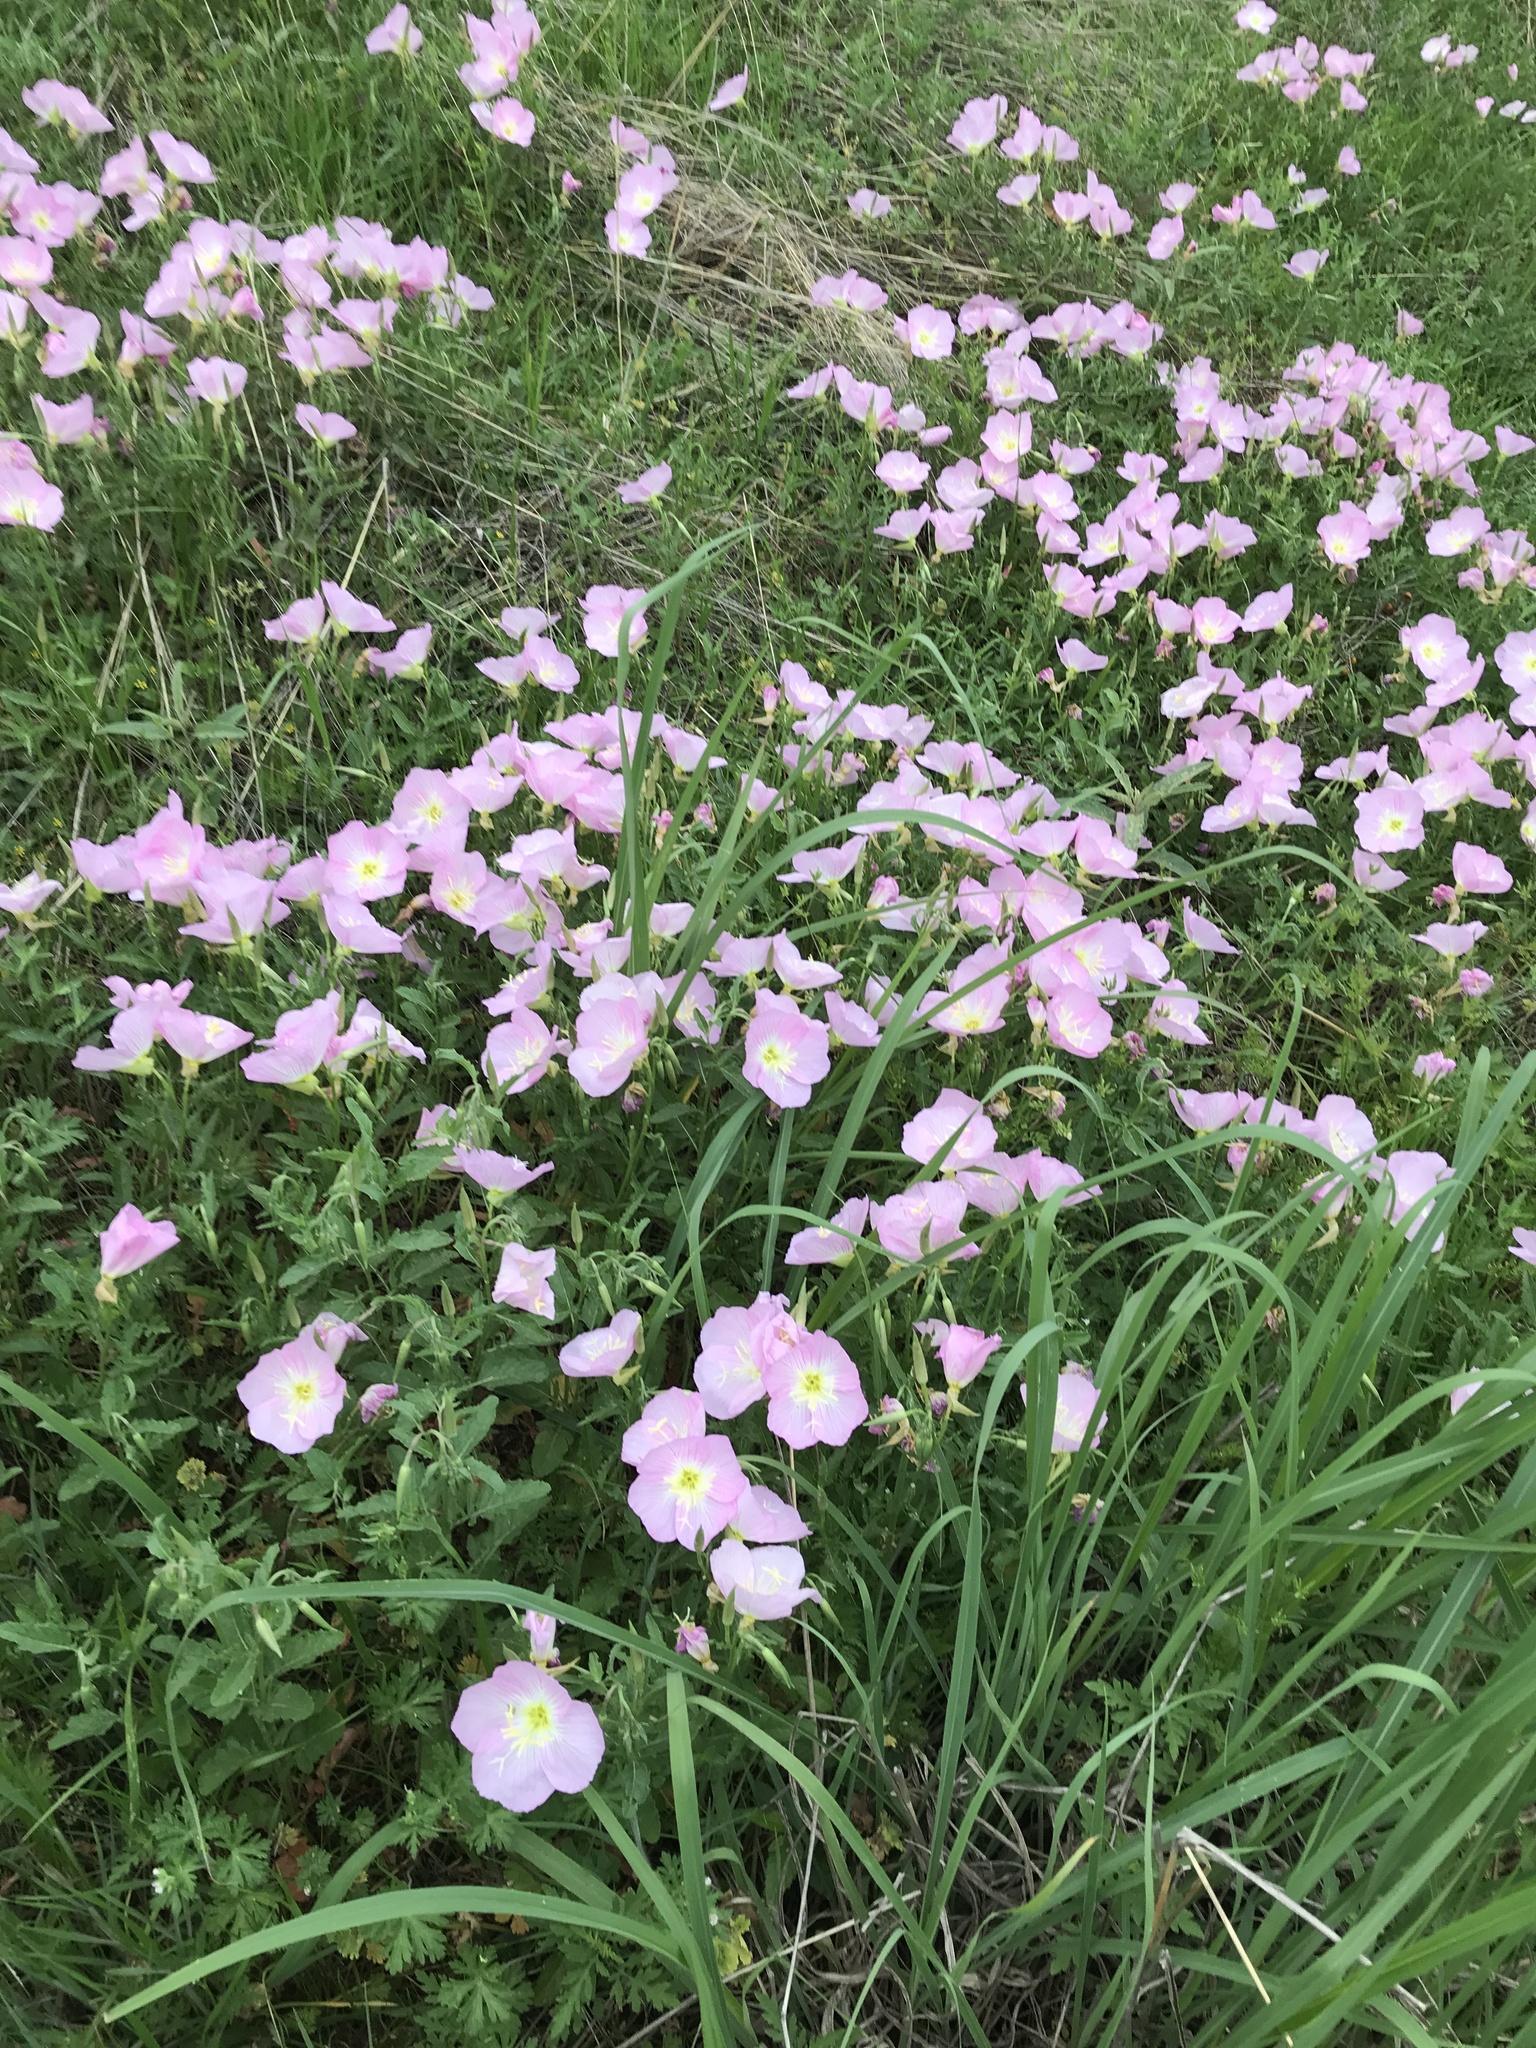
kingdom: Plantae
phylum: Tracheophyta
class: Magnoliopsida
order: Myrtales
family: Onagraceae
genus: Oenothera
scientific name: Oenothera speciosa
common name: White evening-primrose
